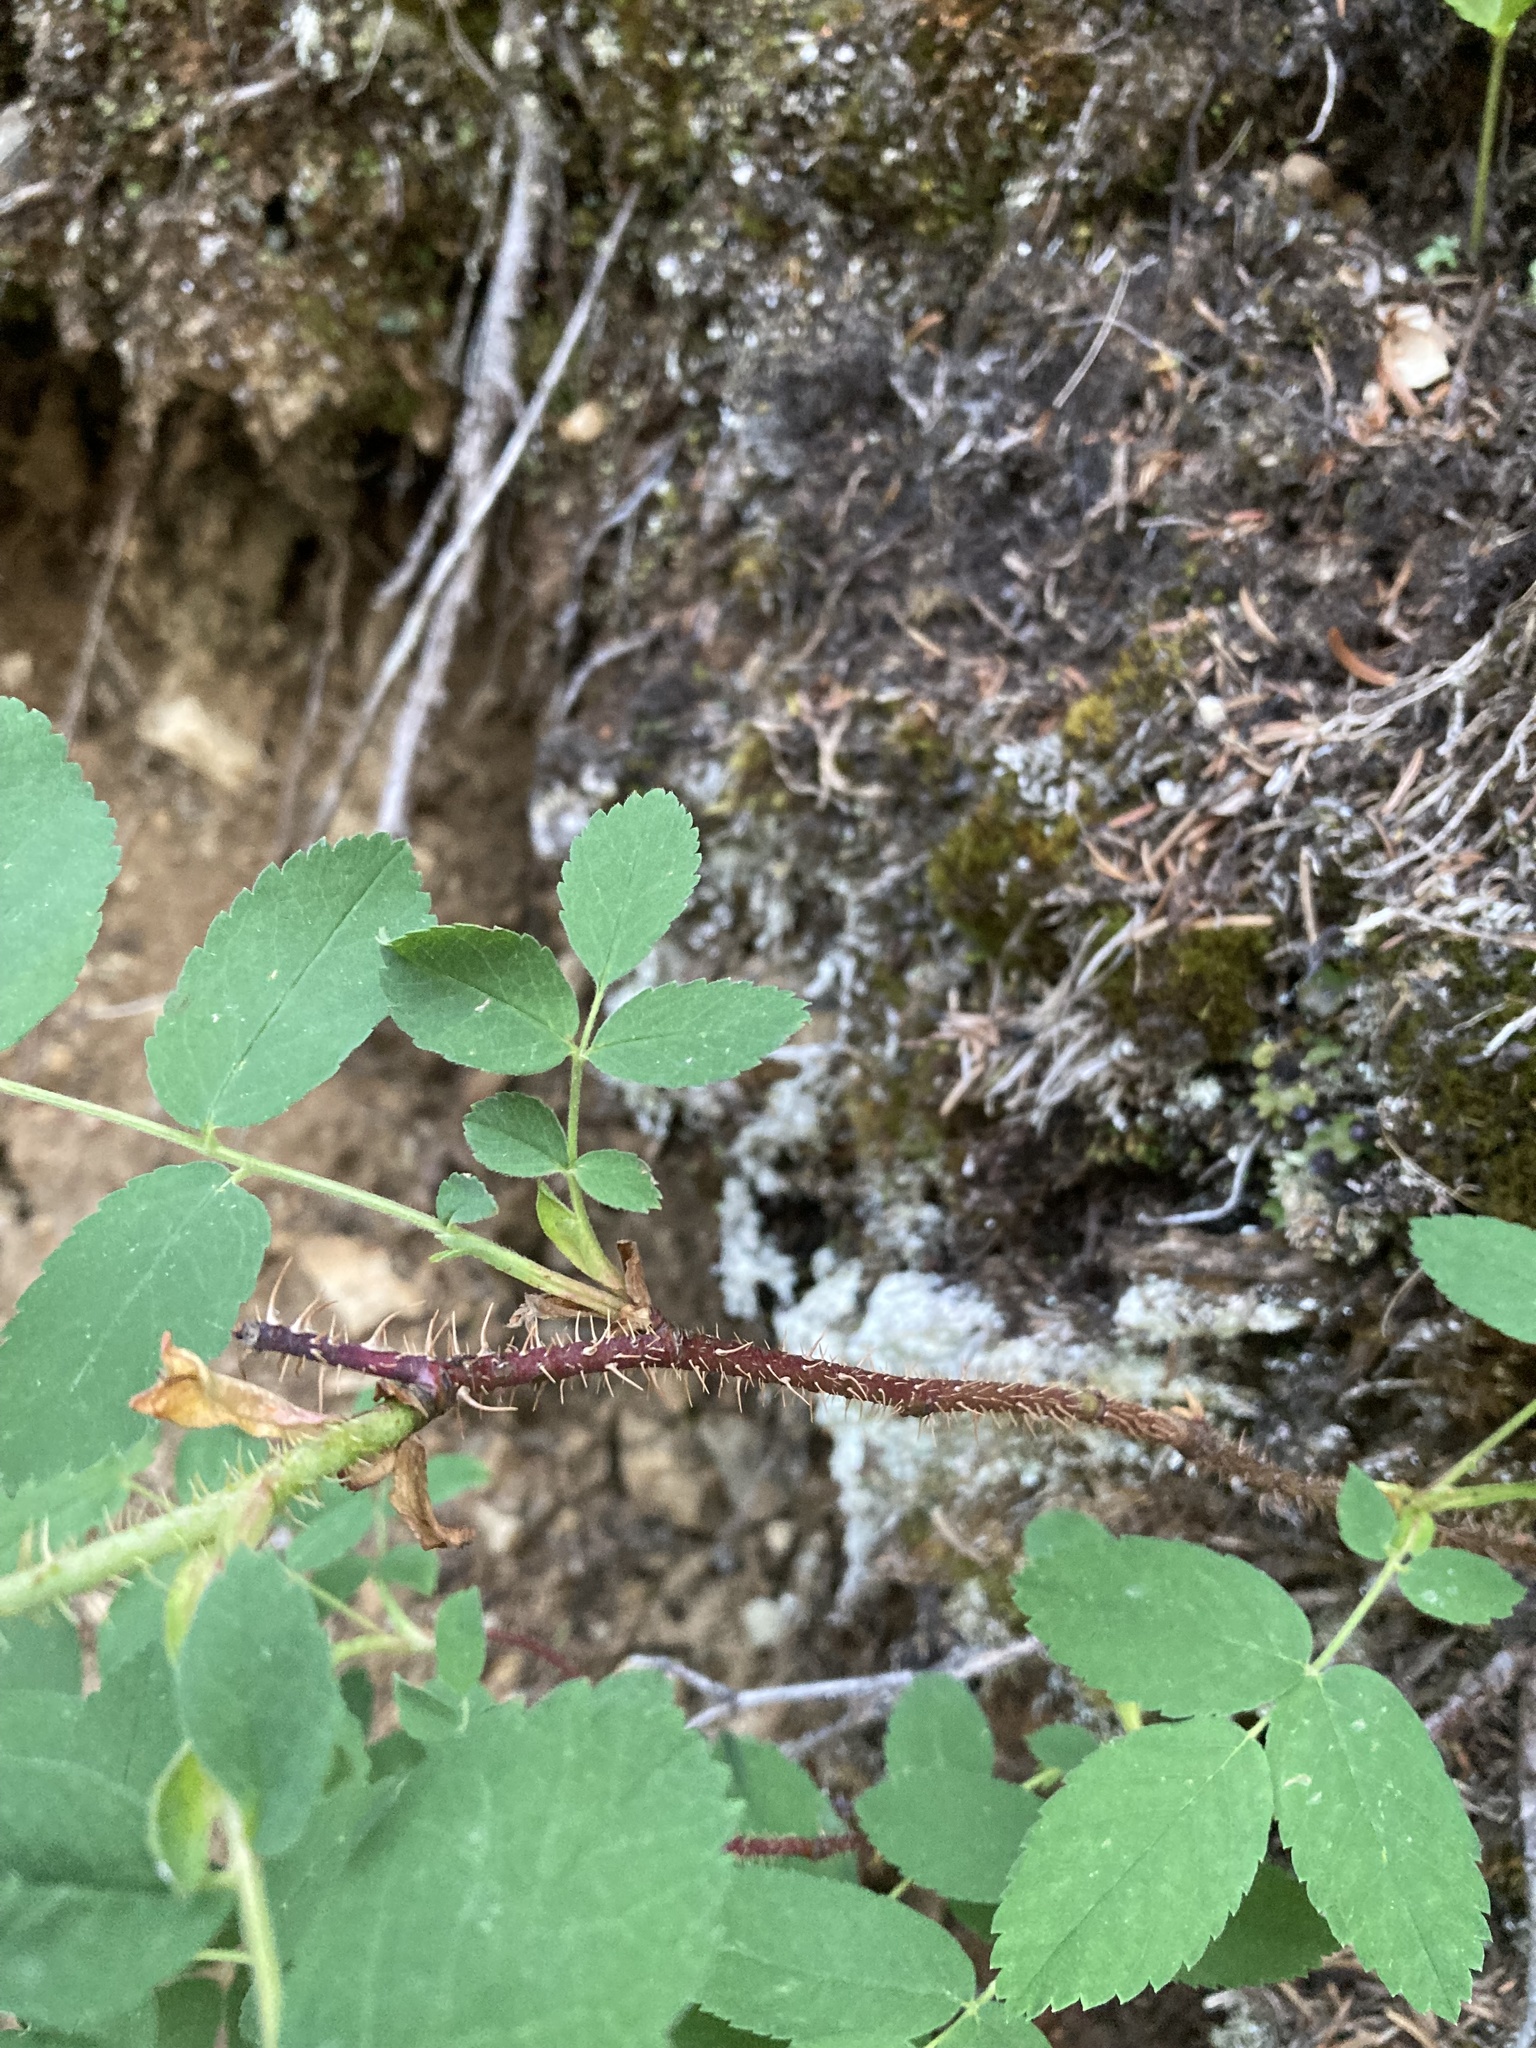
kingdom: Plantae
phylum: Tracheophyta
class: Magnoliopsida
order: Rosales
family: Rosaceae
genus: Rosa
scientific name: Rosa acicularis
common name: Prickly rose
